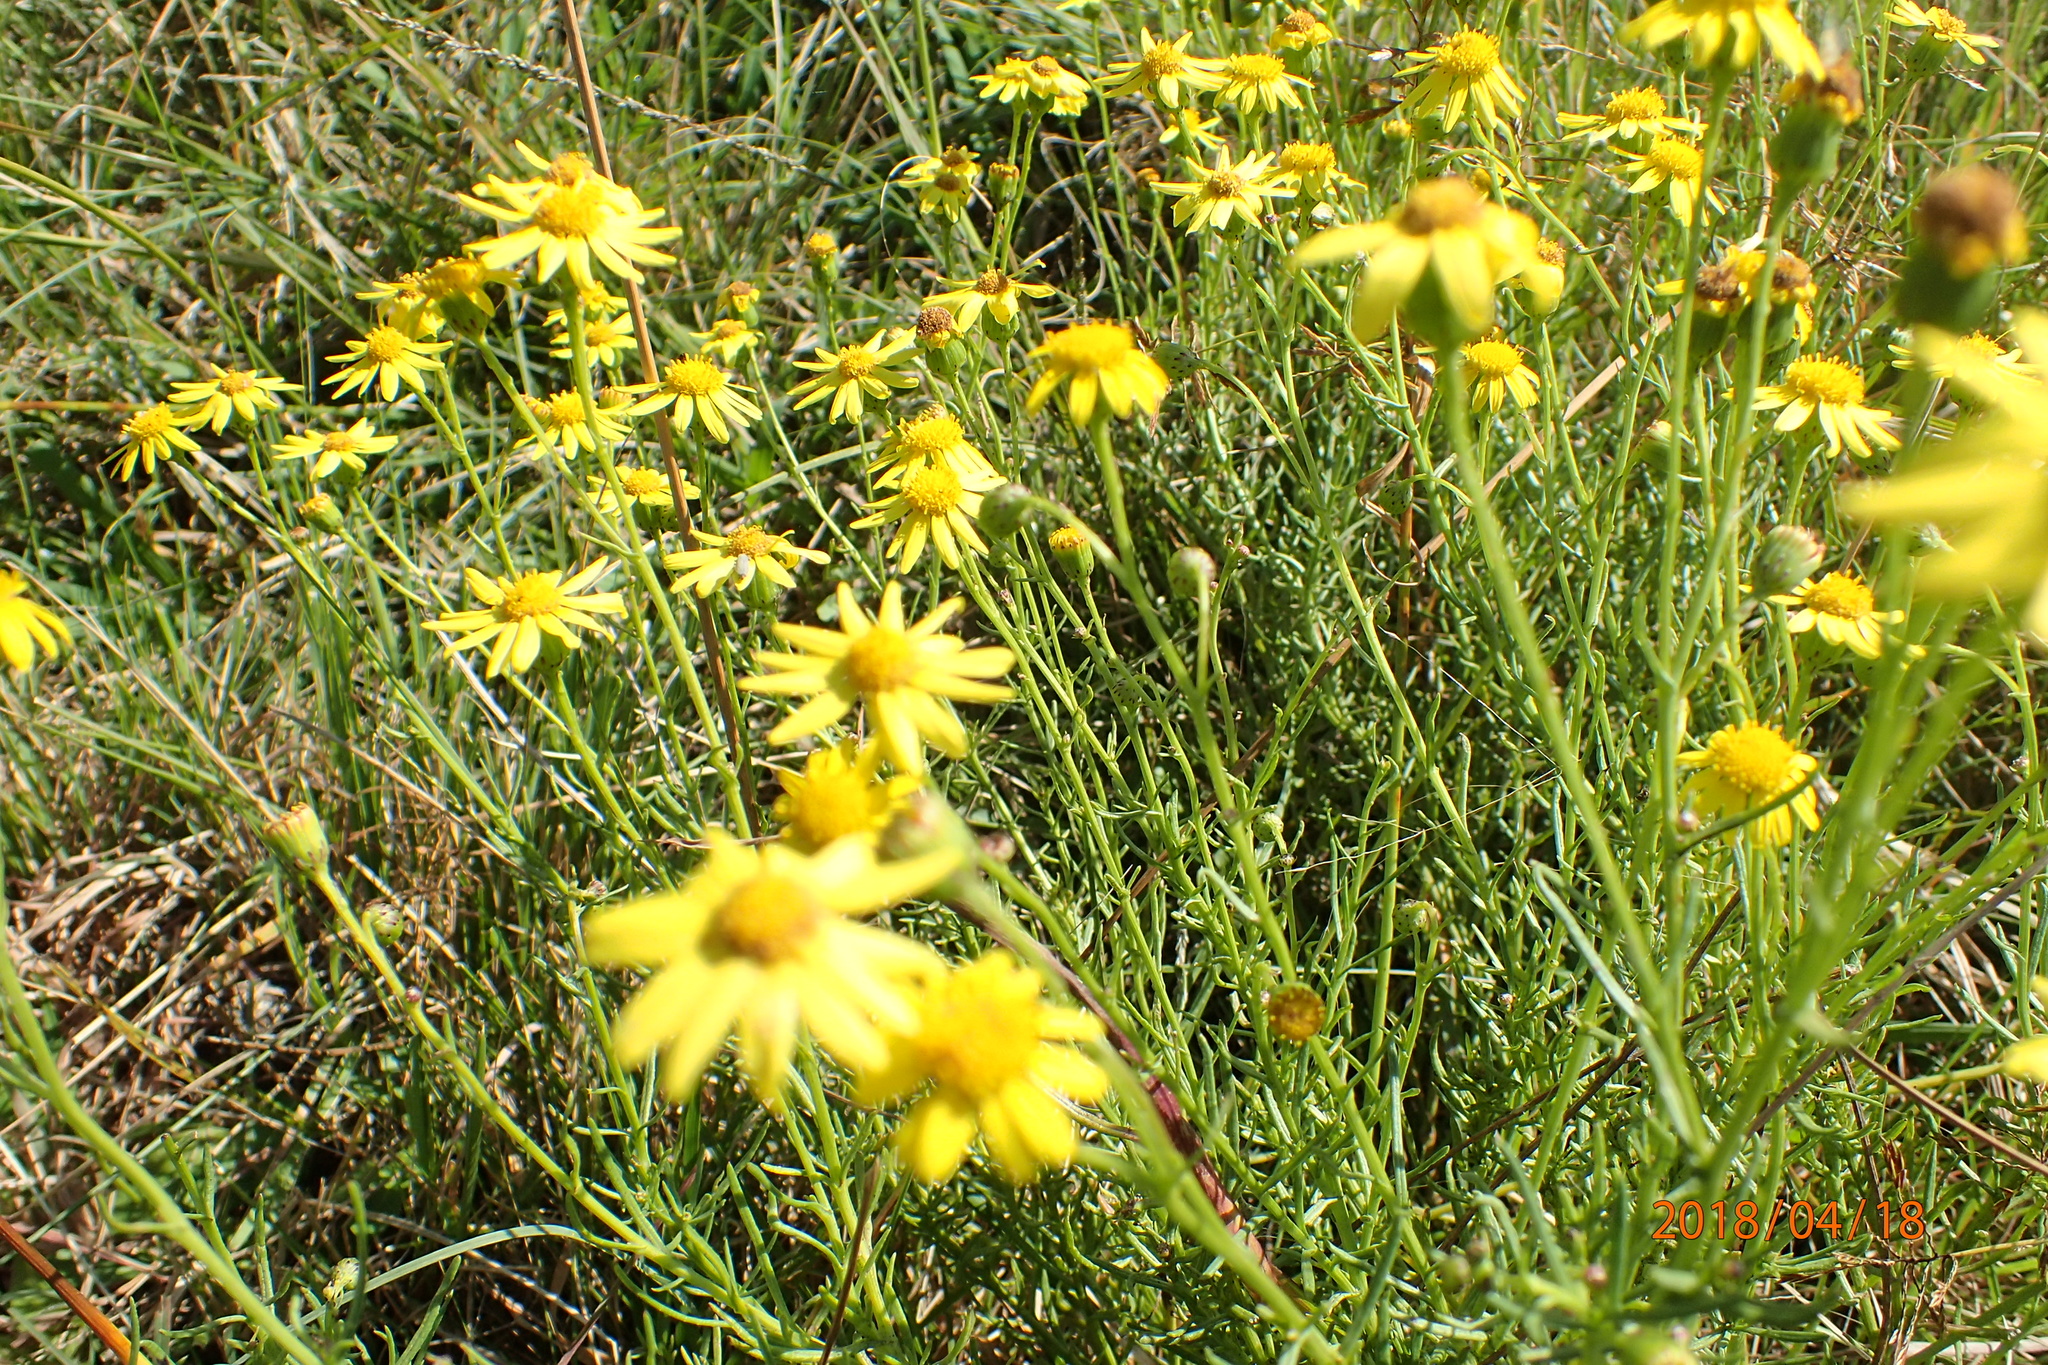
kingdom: Plantae
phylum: Tracheophyta
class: Magnoliopsida
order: Asterales
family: Asteraceae
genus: Senecio
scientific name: Senecio harveyanus
